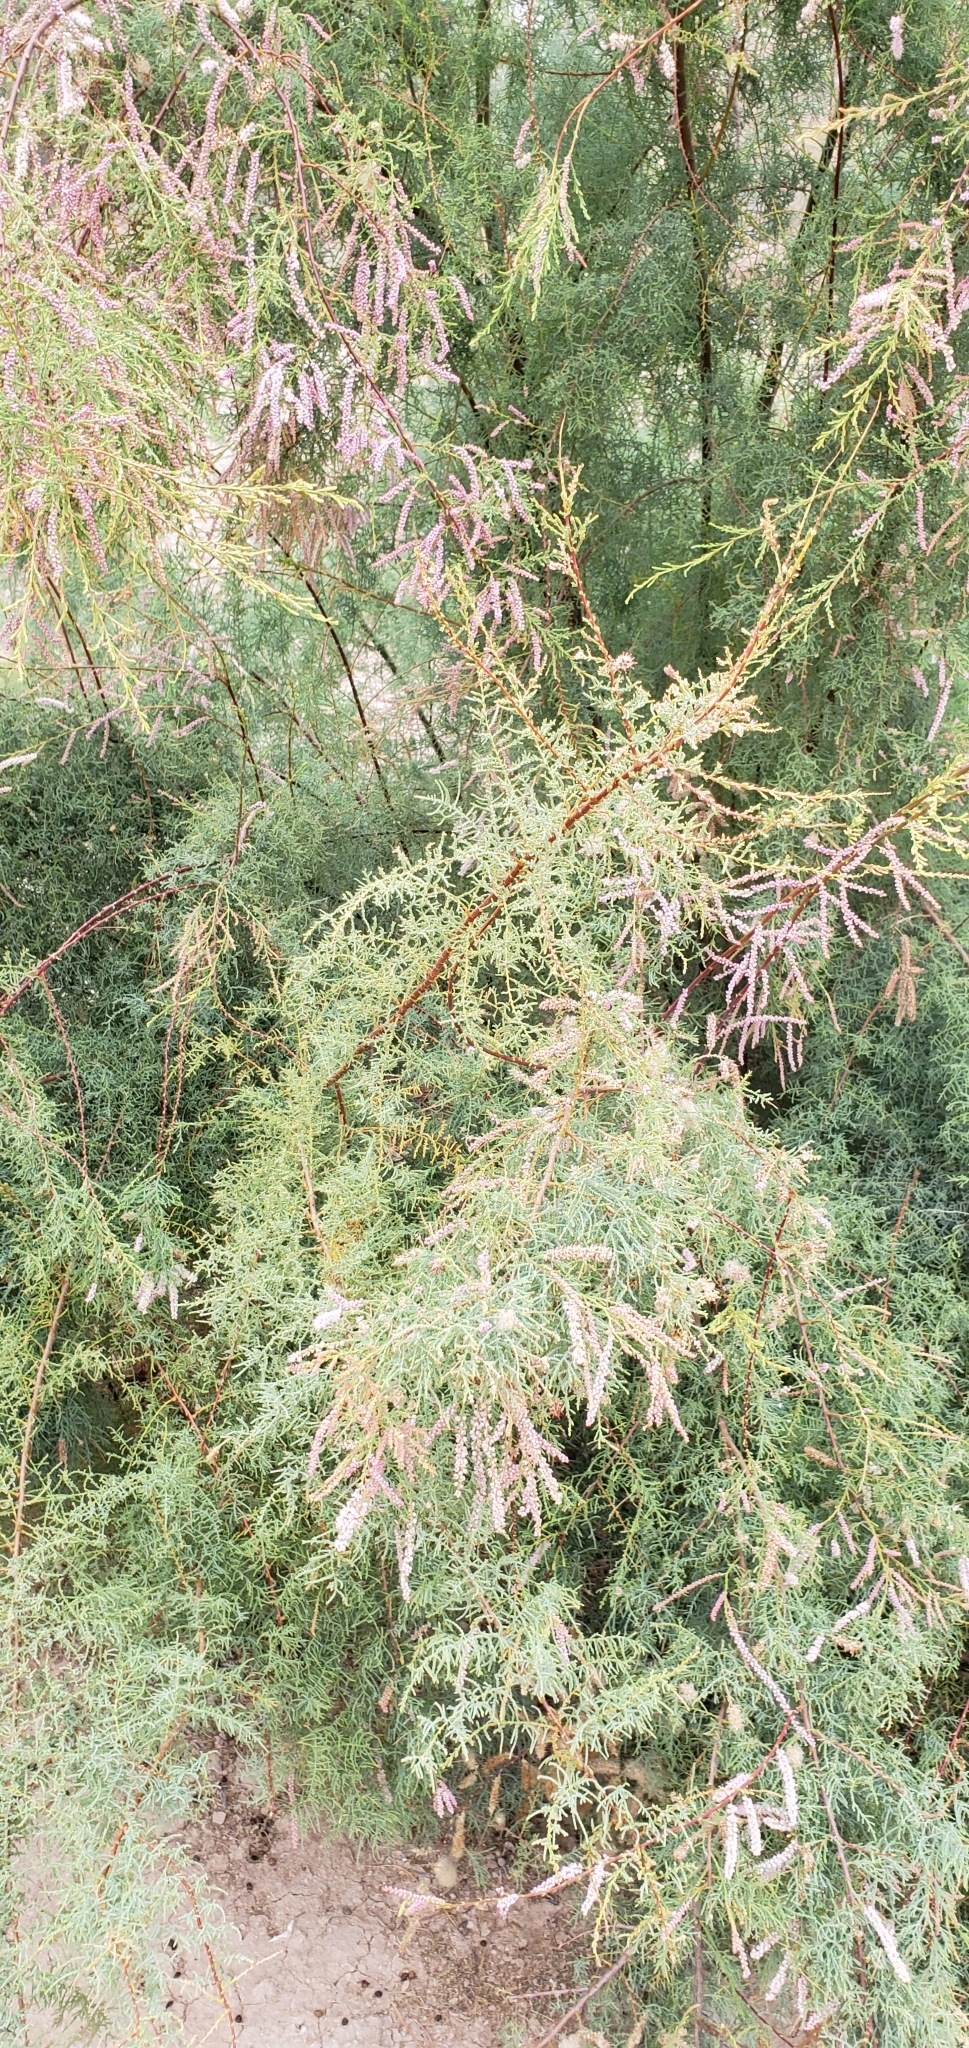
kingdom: Plantae
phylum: Tracheophyta
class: Magnoliopsida
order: Caryophyllales
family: Tamaricaceae
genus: Tamarix
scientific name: Tamarix ramosissima
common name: Pink tamarisk
